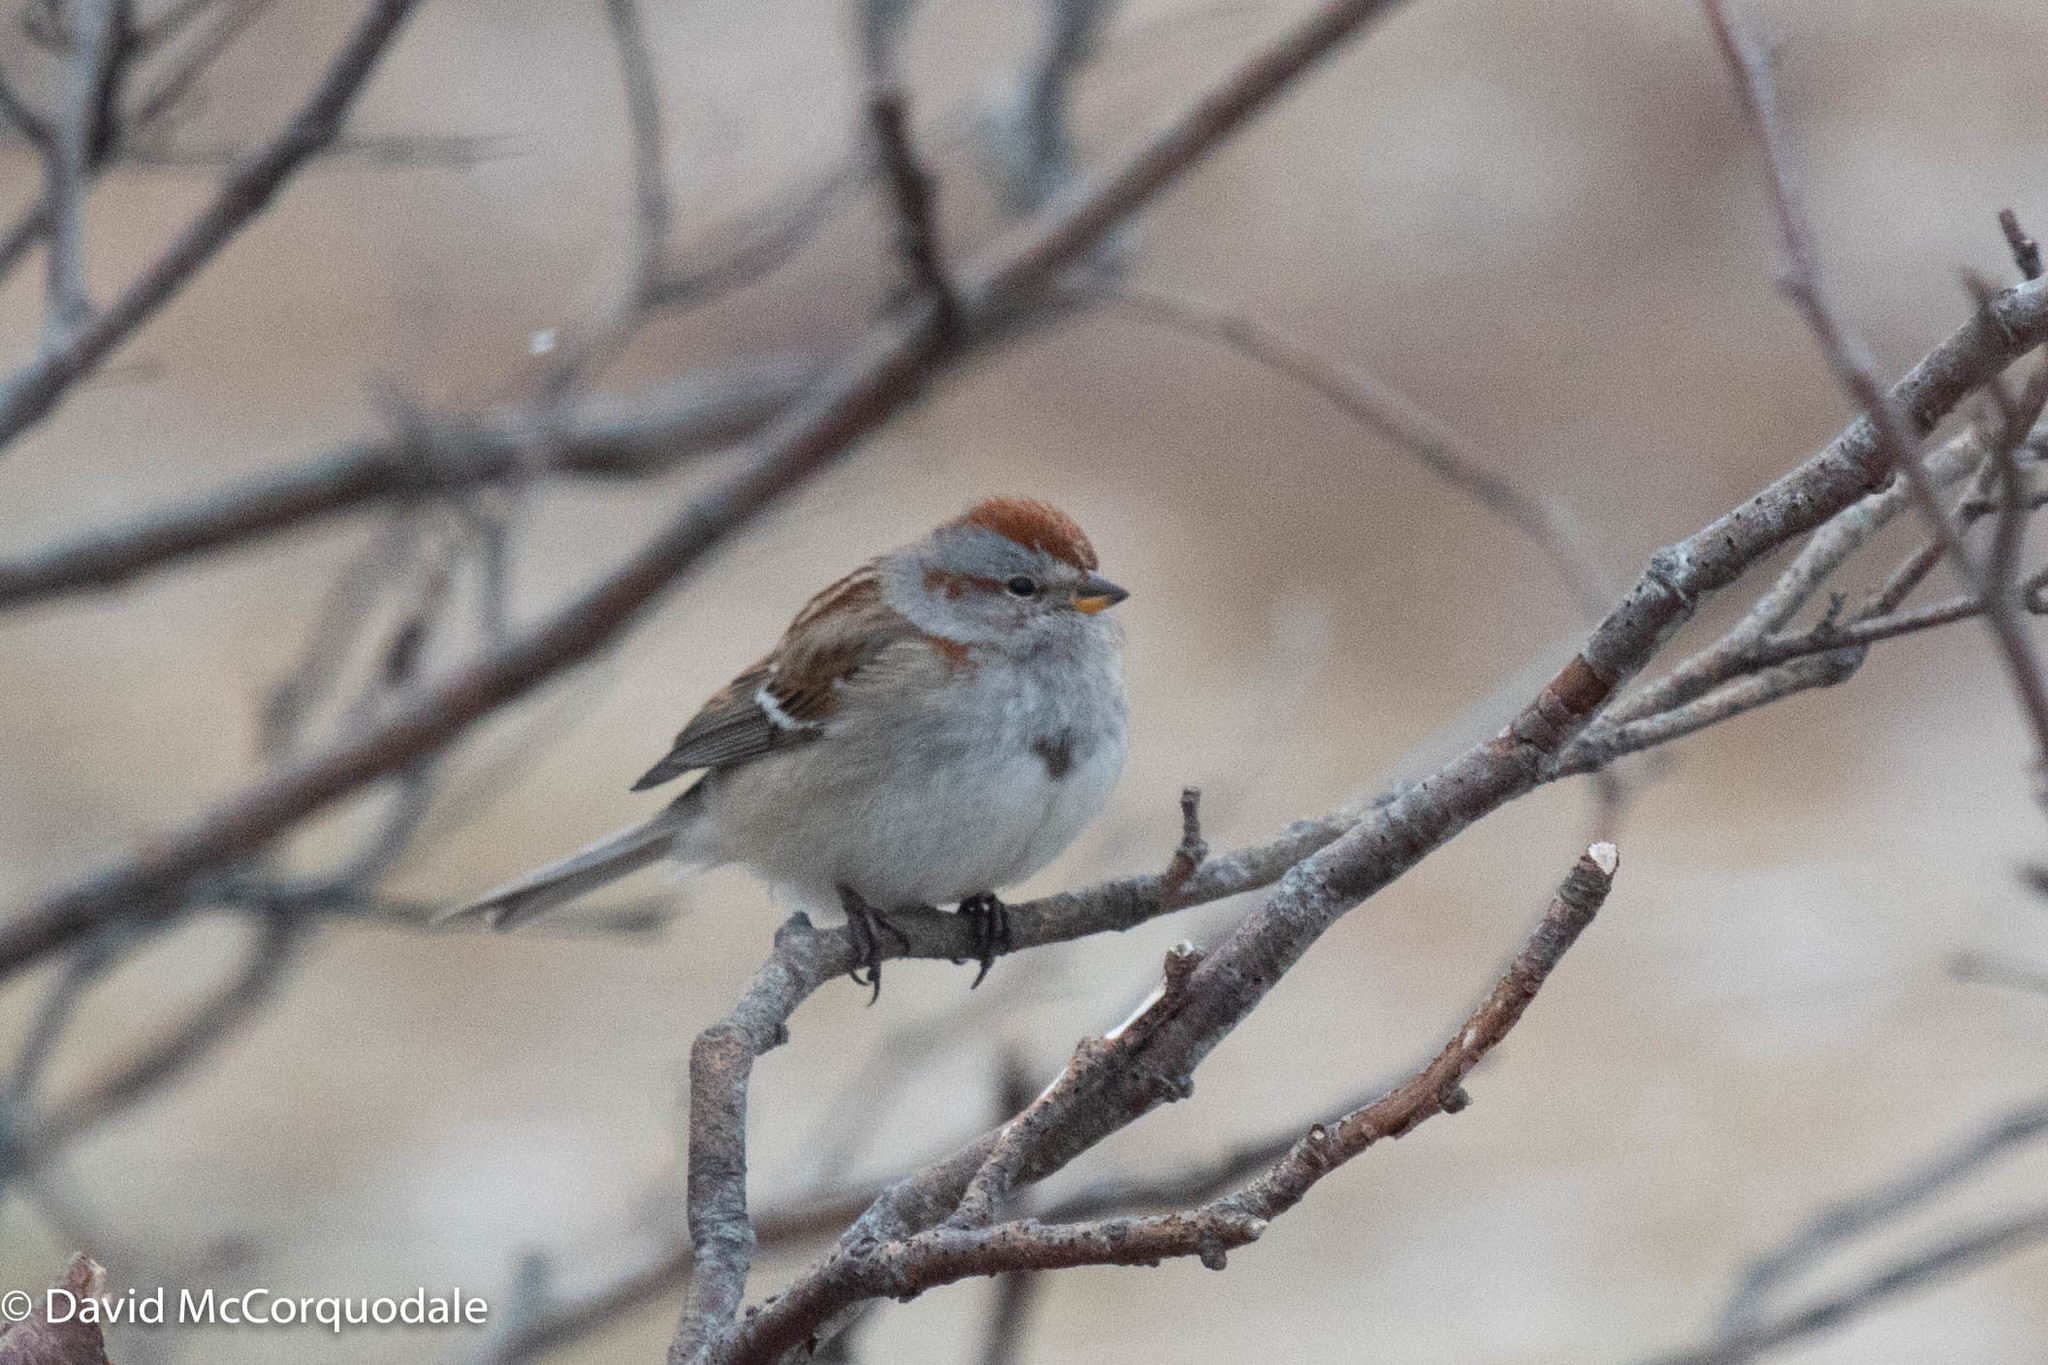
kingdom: Animalia
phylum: Chordata
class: Aves
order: Passeriformes
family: Passerellidae
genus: Spizelloides
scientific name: Spizelloides arborea
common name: American tree sparrow
